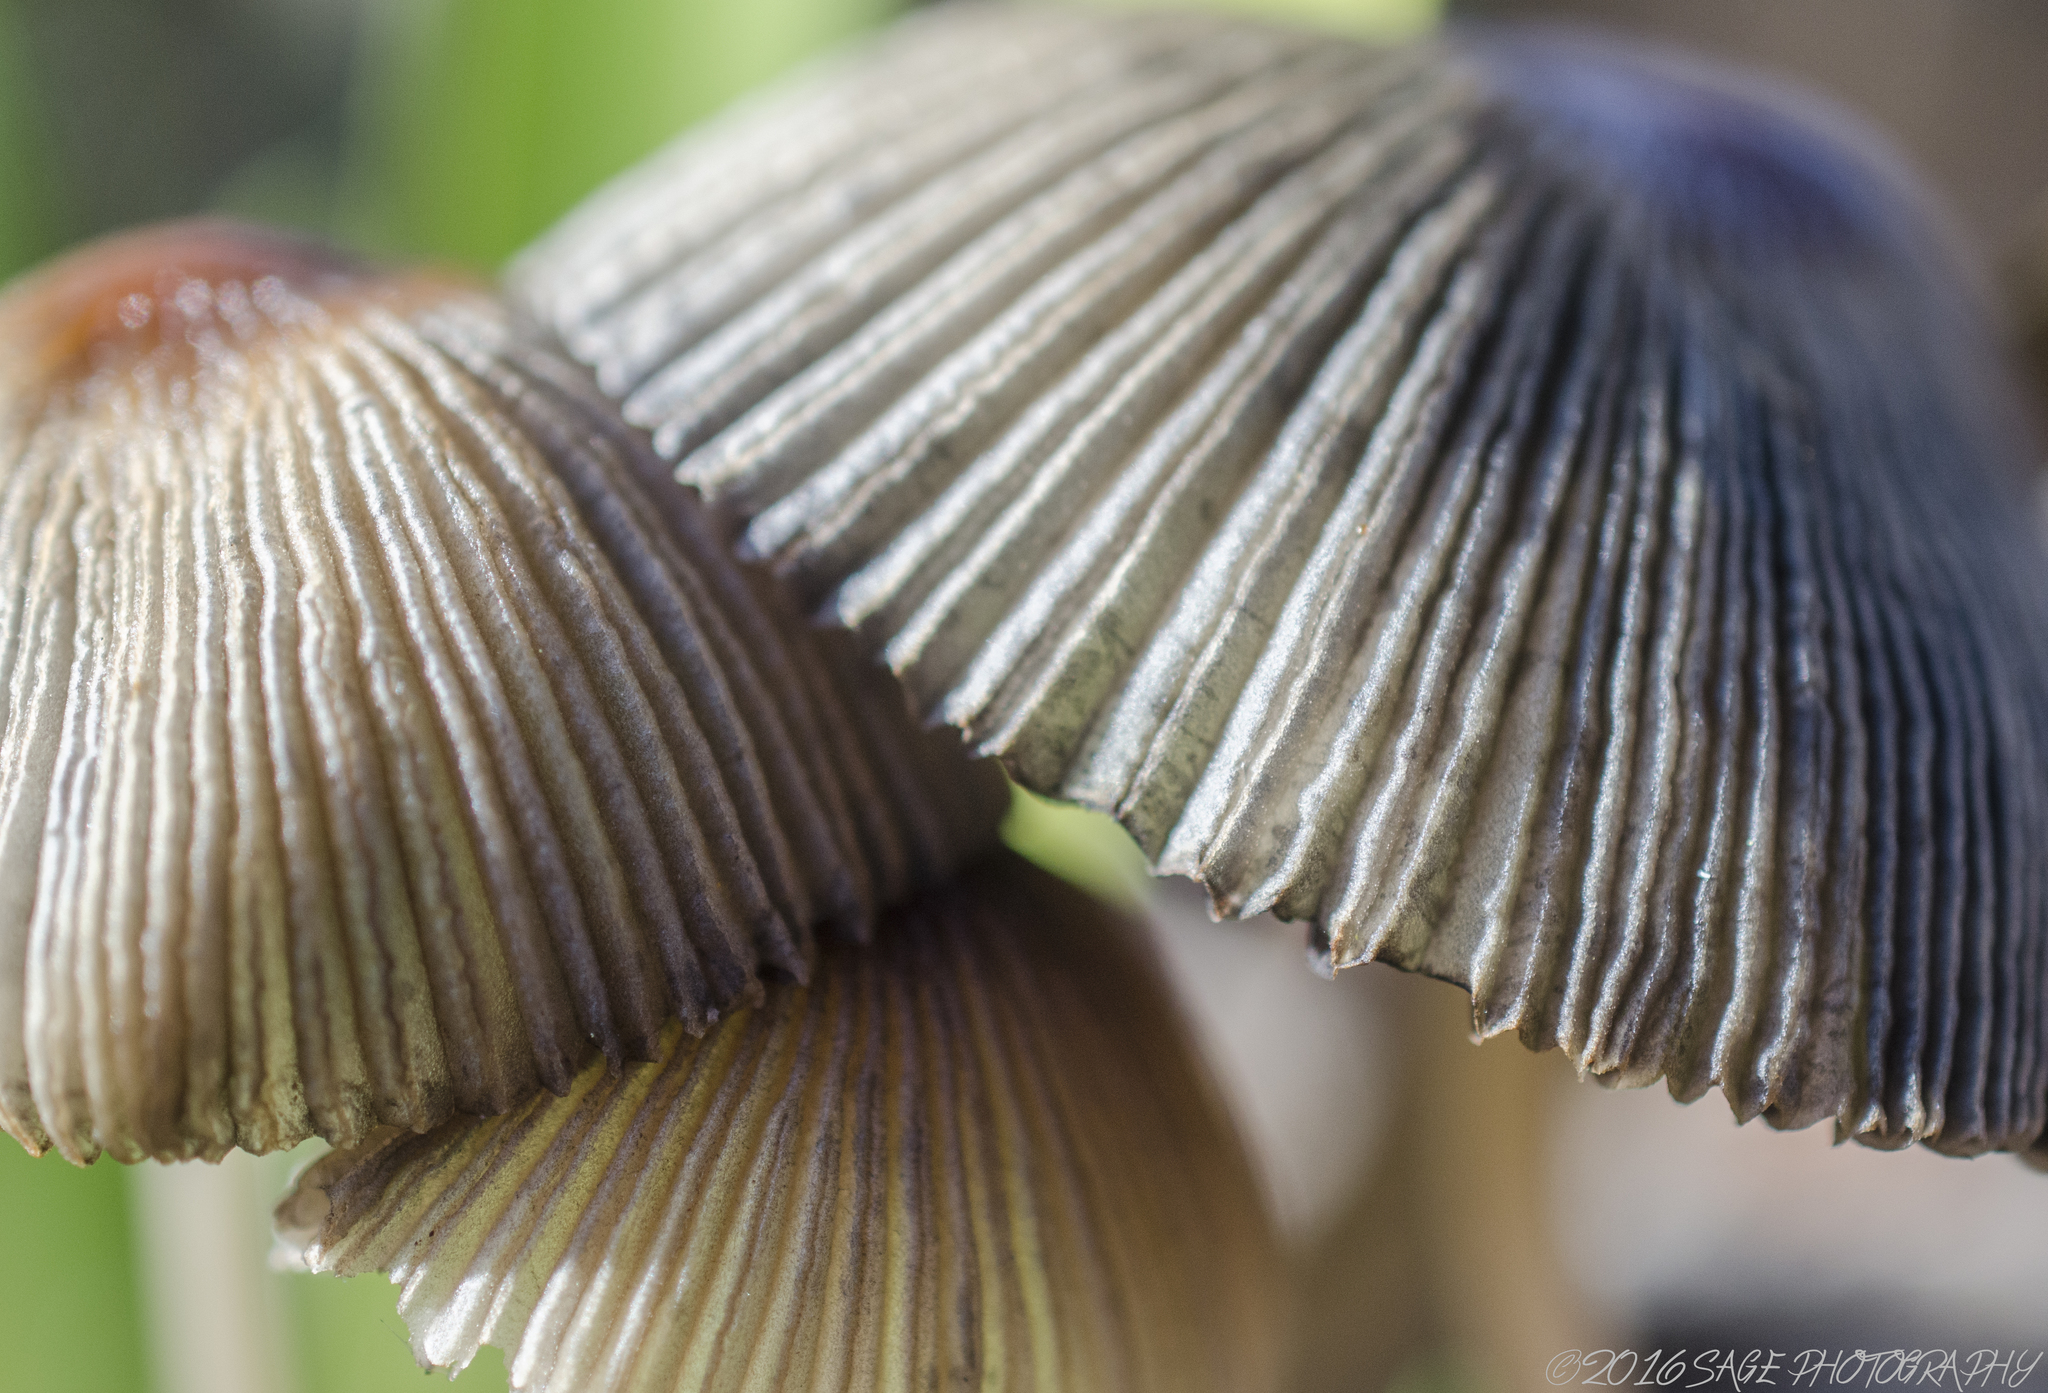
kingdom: Fungi
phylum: Basidiomycota
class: Agaricomycetes
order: Agaricales
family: Psathyrellaceae
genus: Parasola
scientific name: Parasola auricoma
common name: Goldenhaired inkcap
